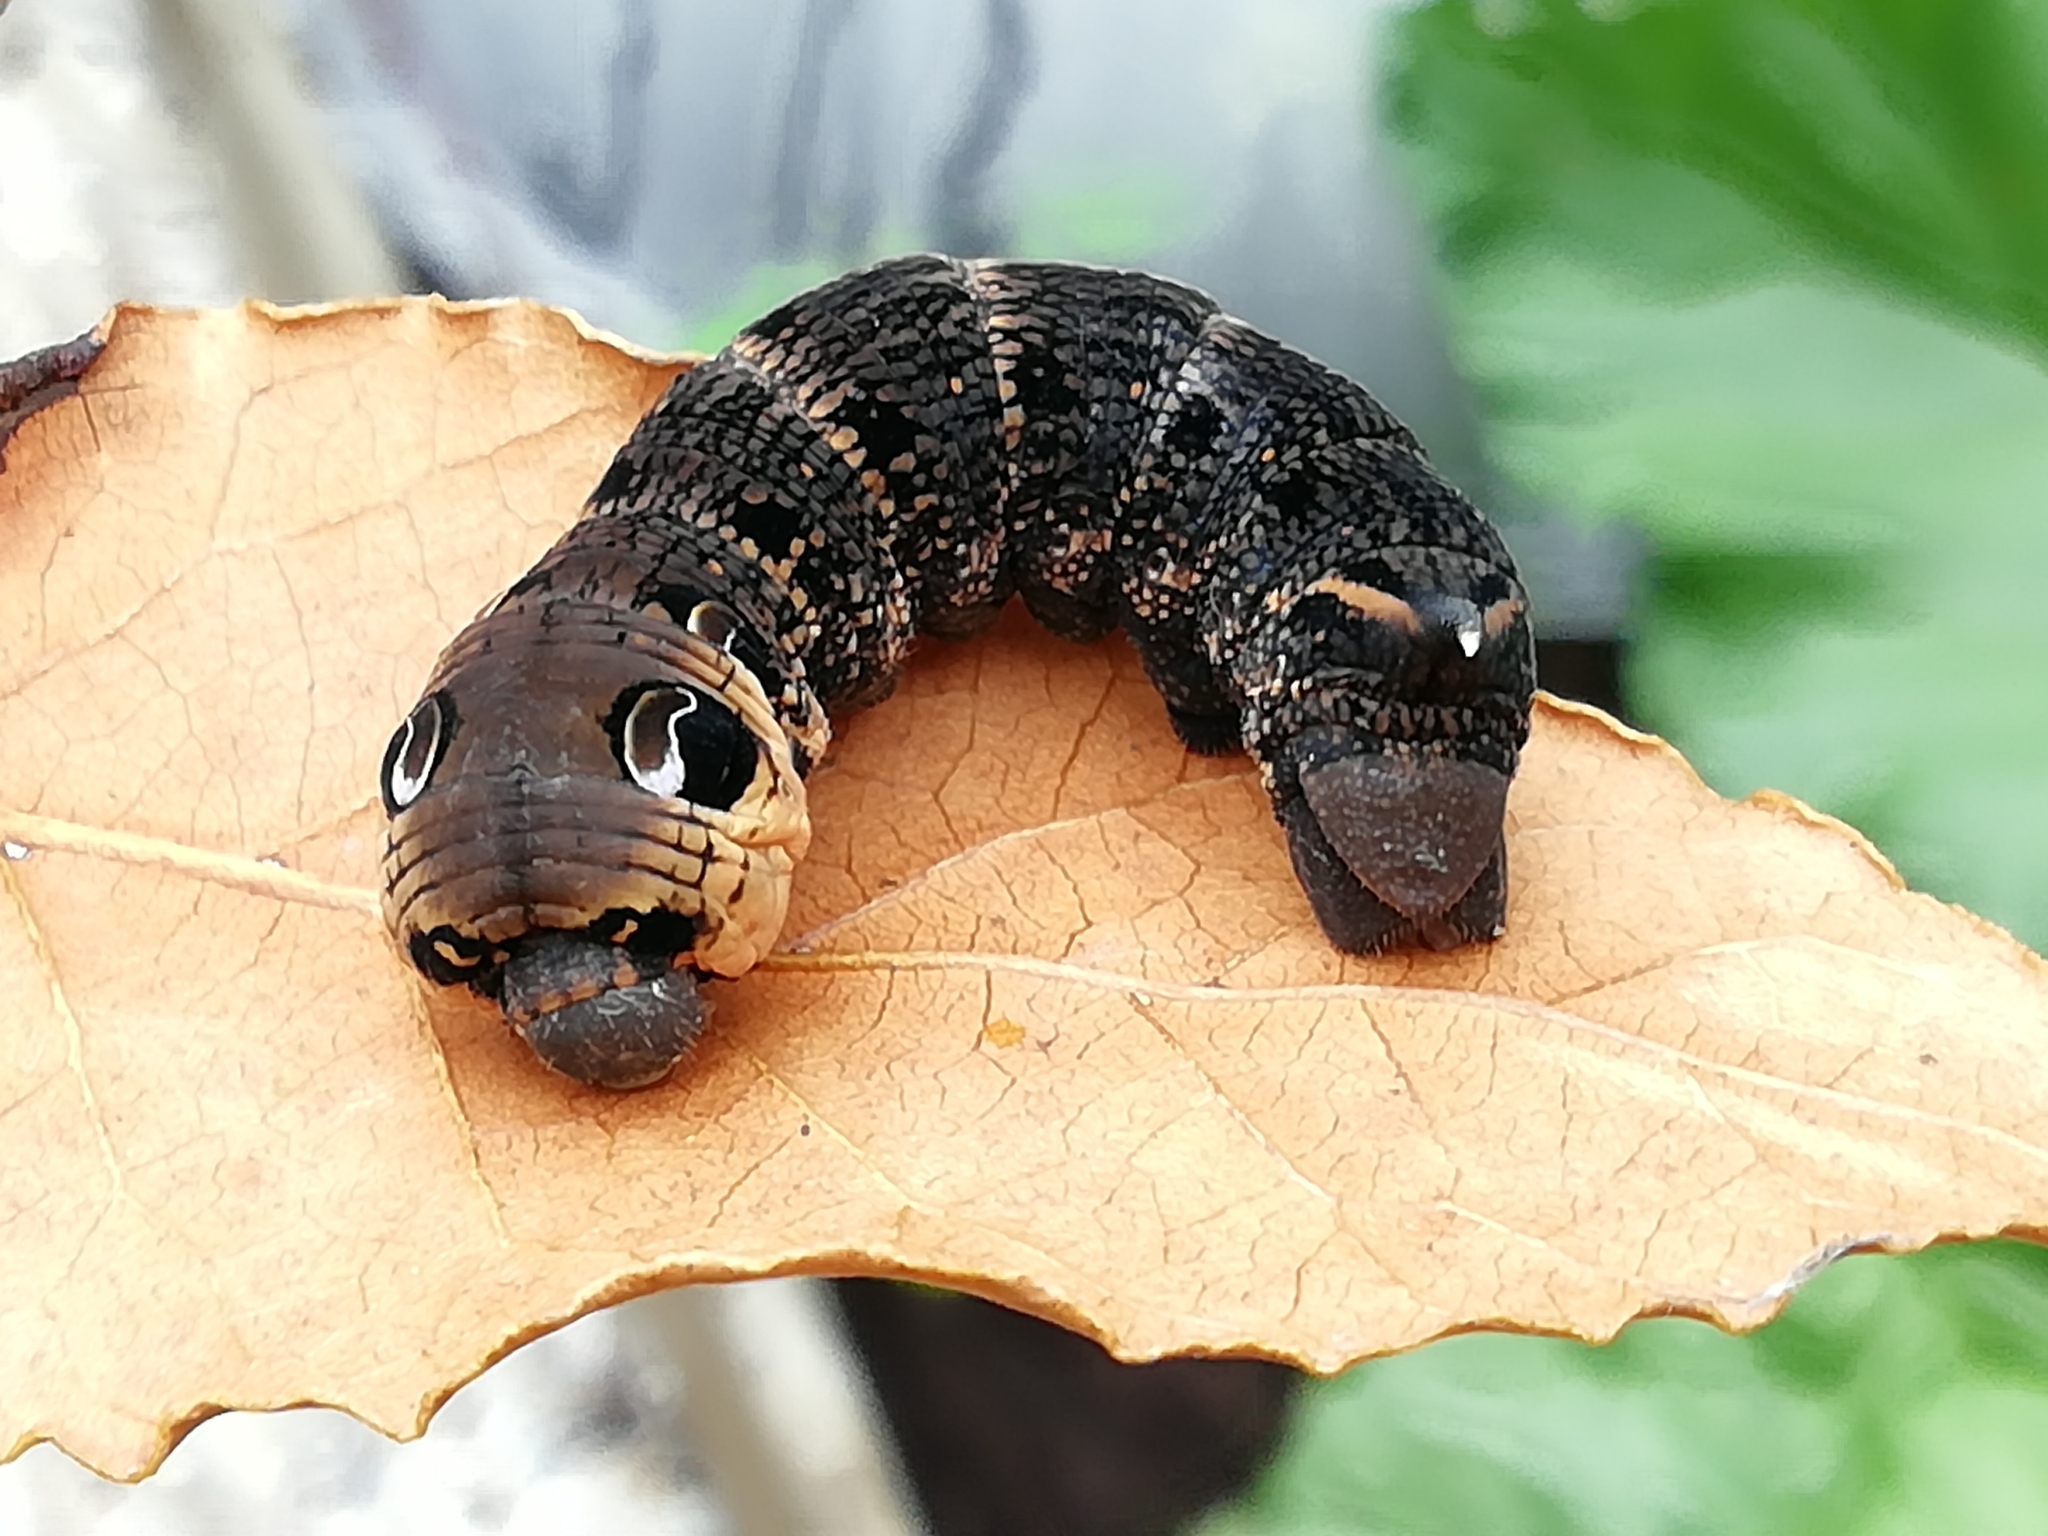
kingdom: Animalia
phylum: Arthropoda
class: Insecta
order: Lepidoptera
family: Sphingidae
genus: Deilephila
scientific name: Deilephila elpenor
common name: Elephant hawk-moth
